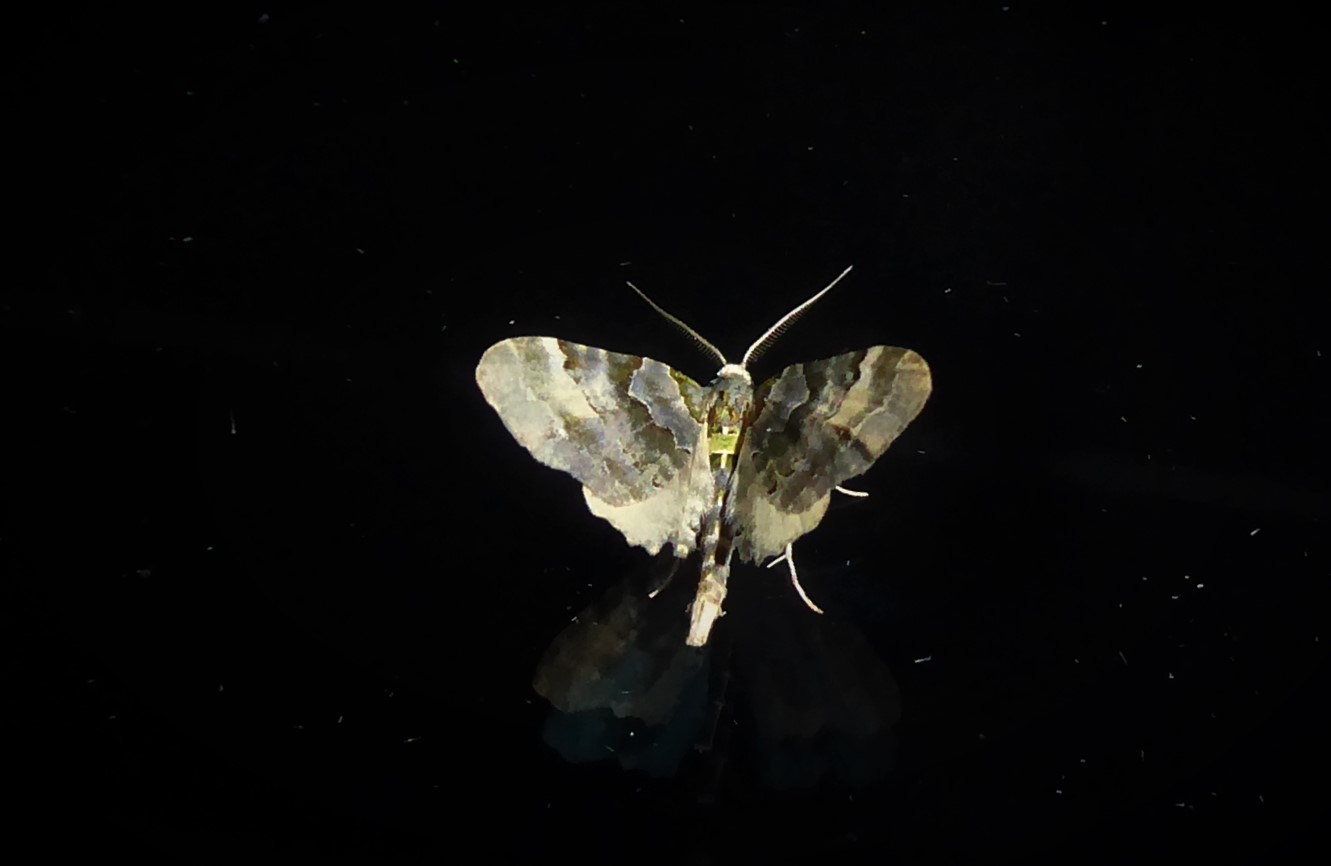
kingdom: Animalia
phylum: Arthropoda
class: Insecta
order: Lepidoptera
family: Geometridae
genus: Elvia
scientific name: Elvia glaucata
